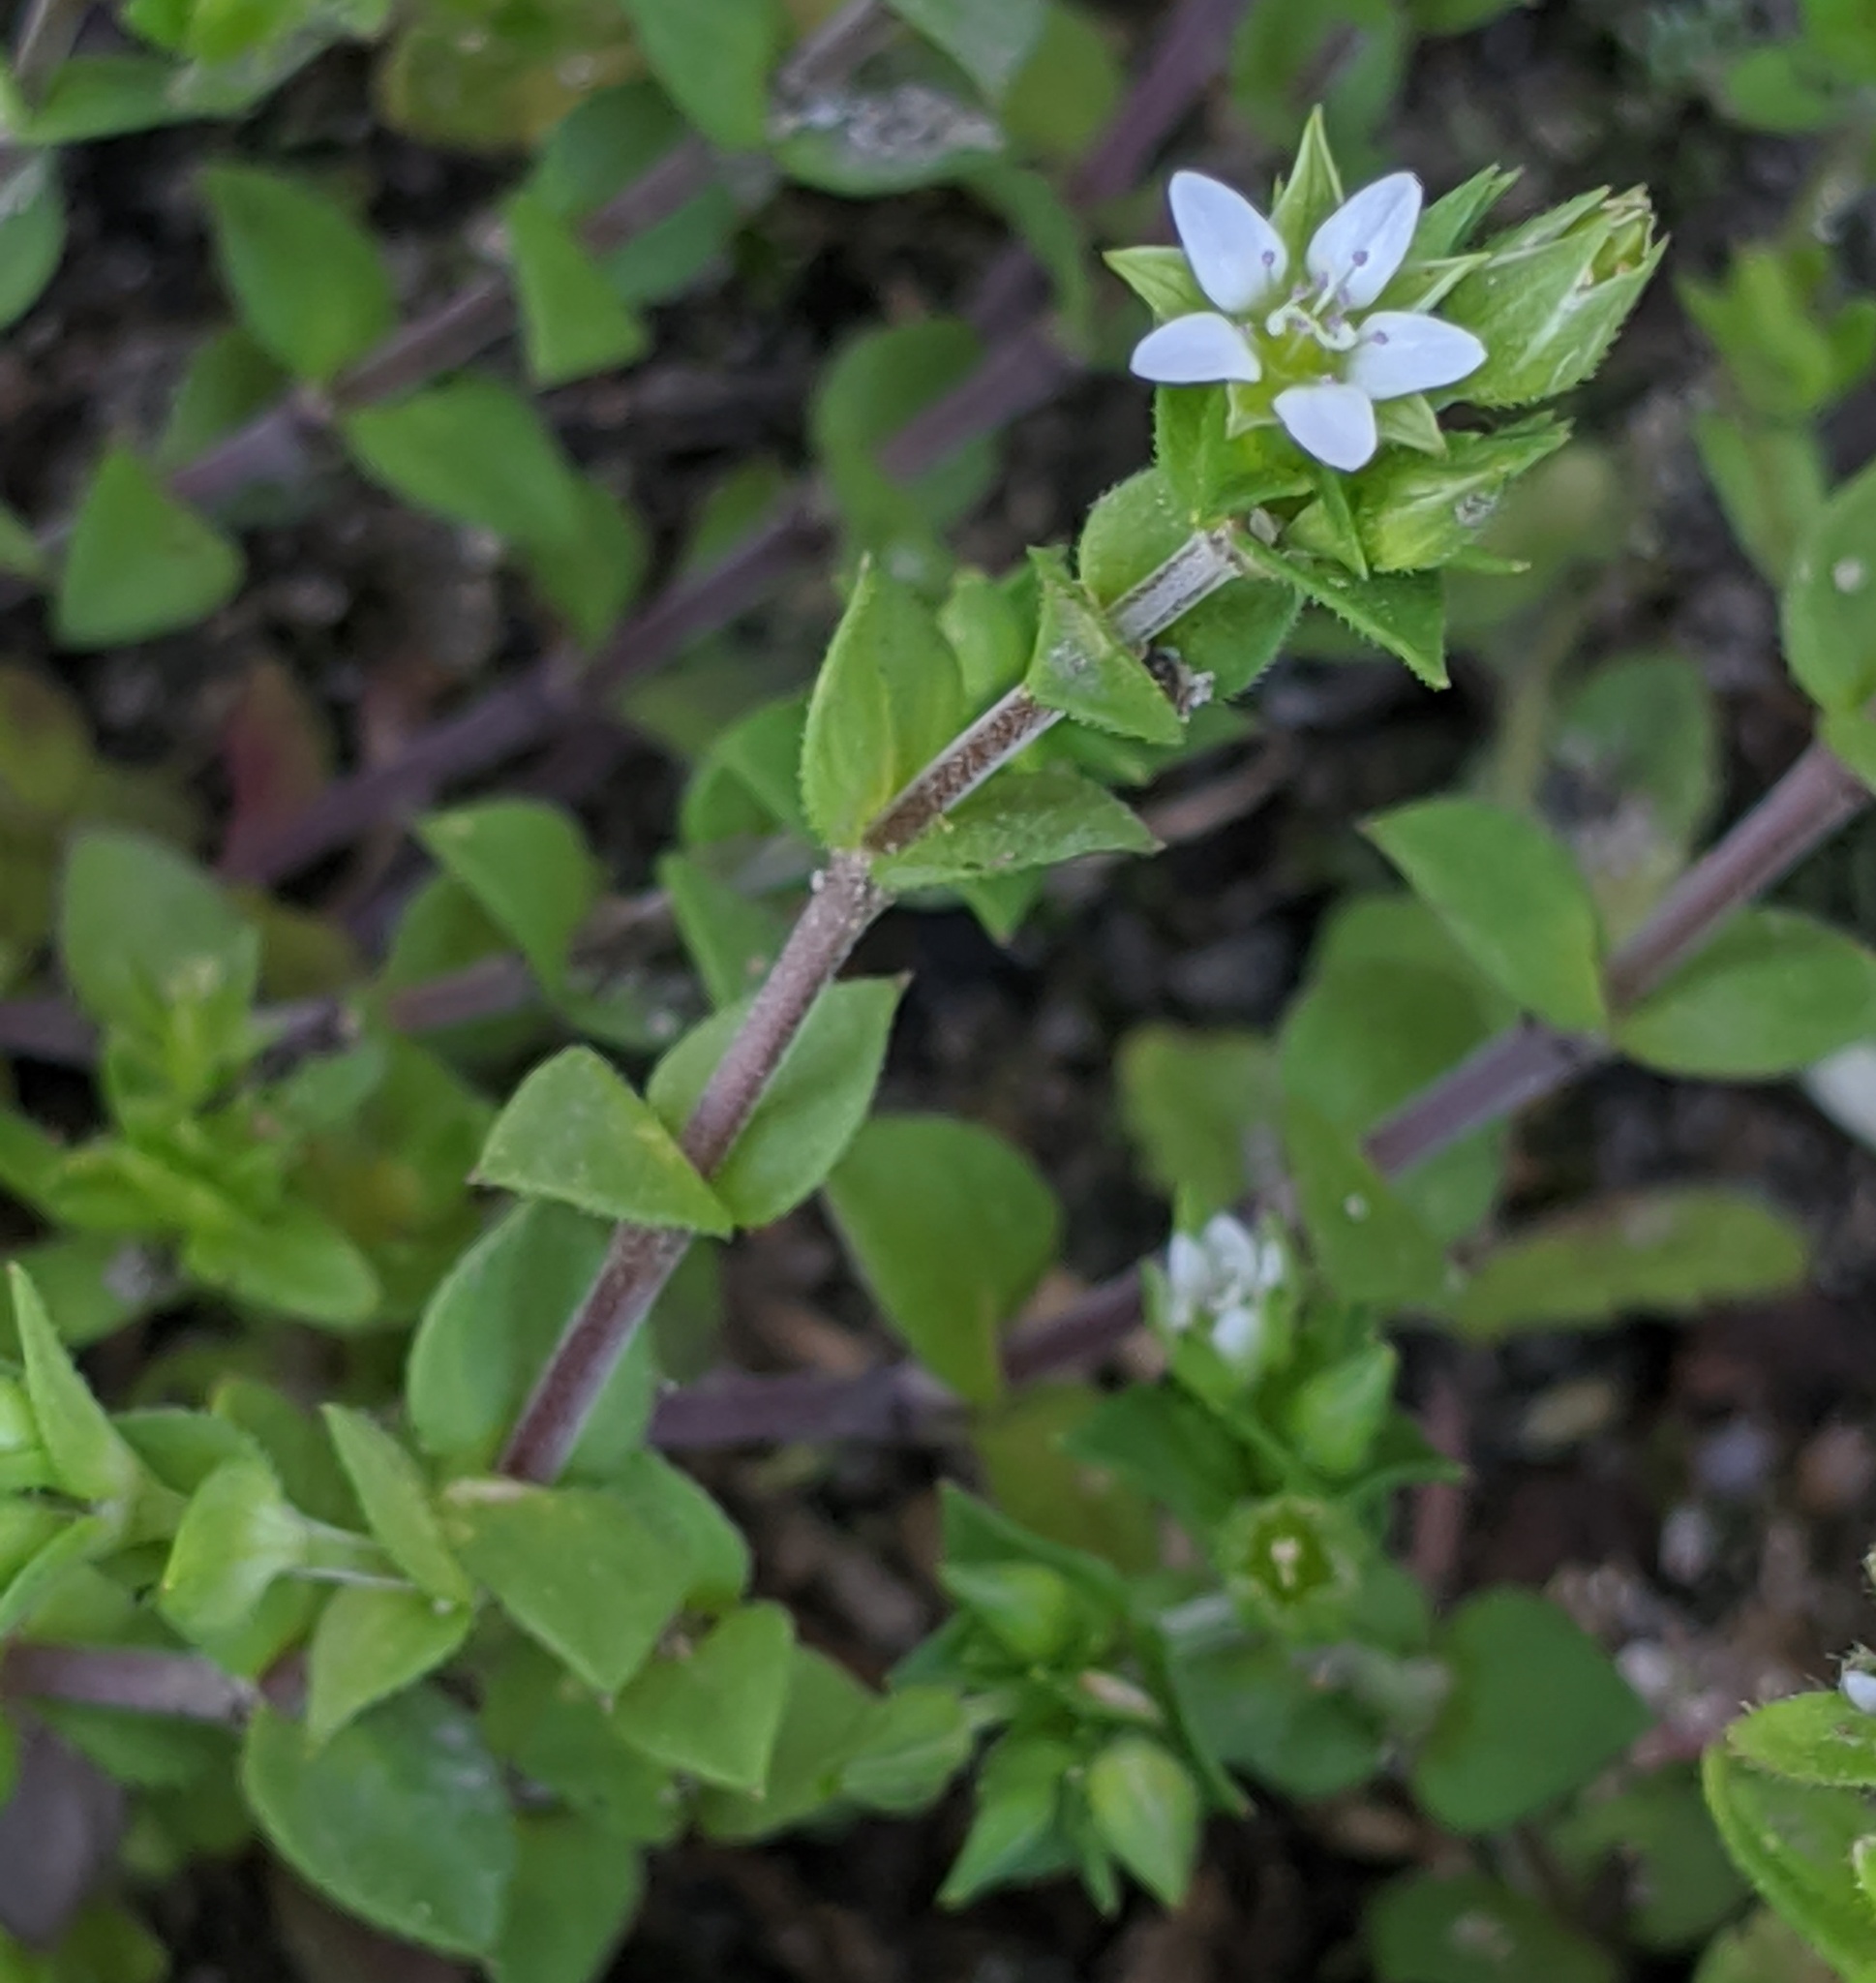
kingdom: Plantae
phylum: Tracheophyta
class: Magnoliopsida
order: Caryophyllales
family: Caryophyllaceae
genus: Arenaria
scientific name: Arenaria serpyllifolia
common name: Thyme-leaved sandwort
